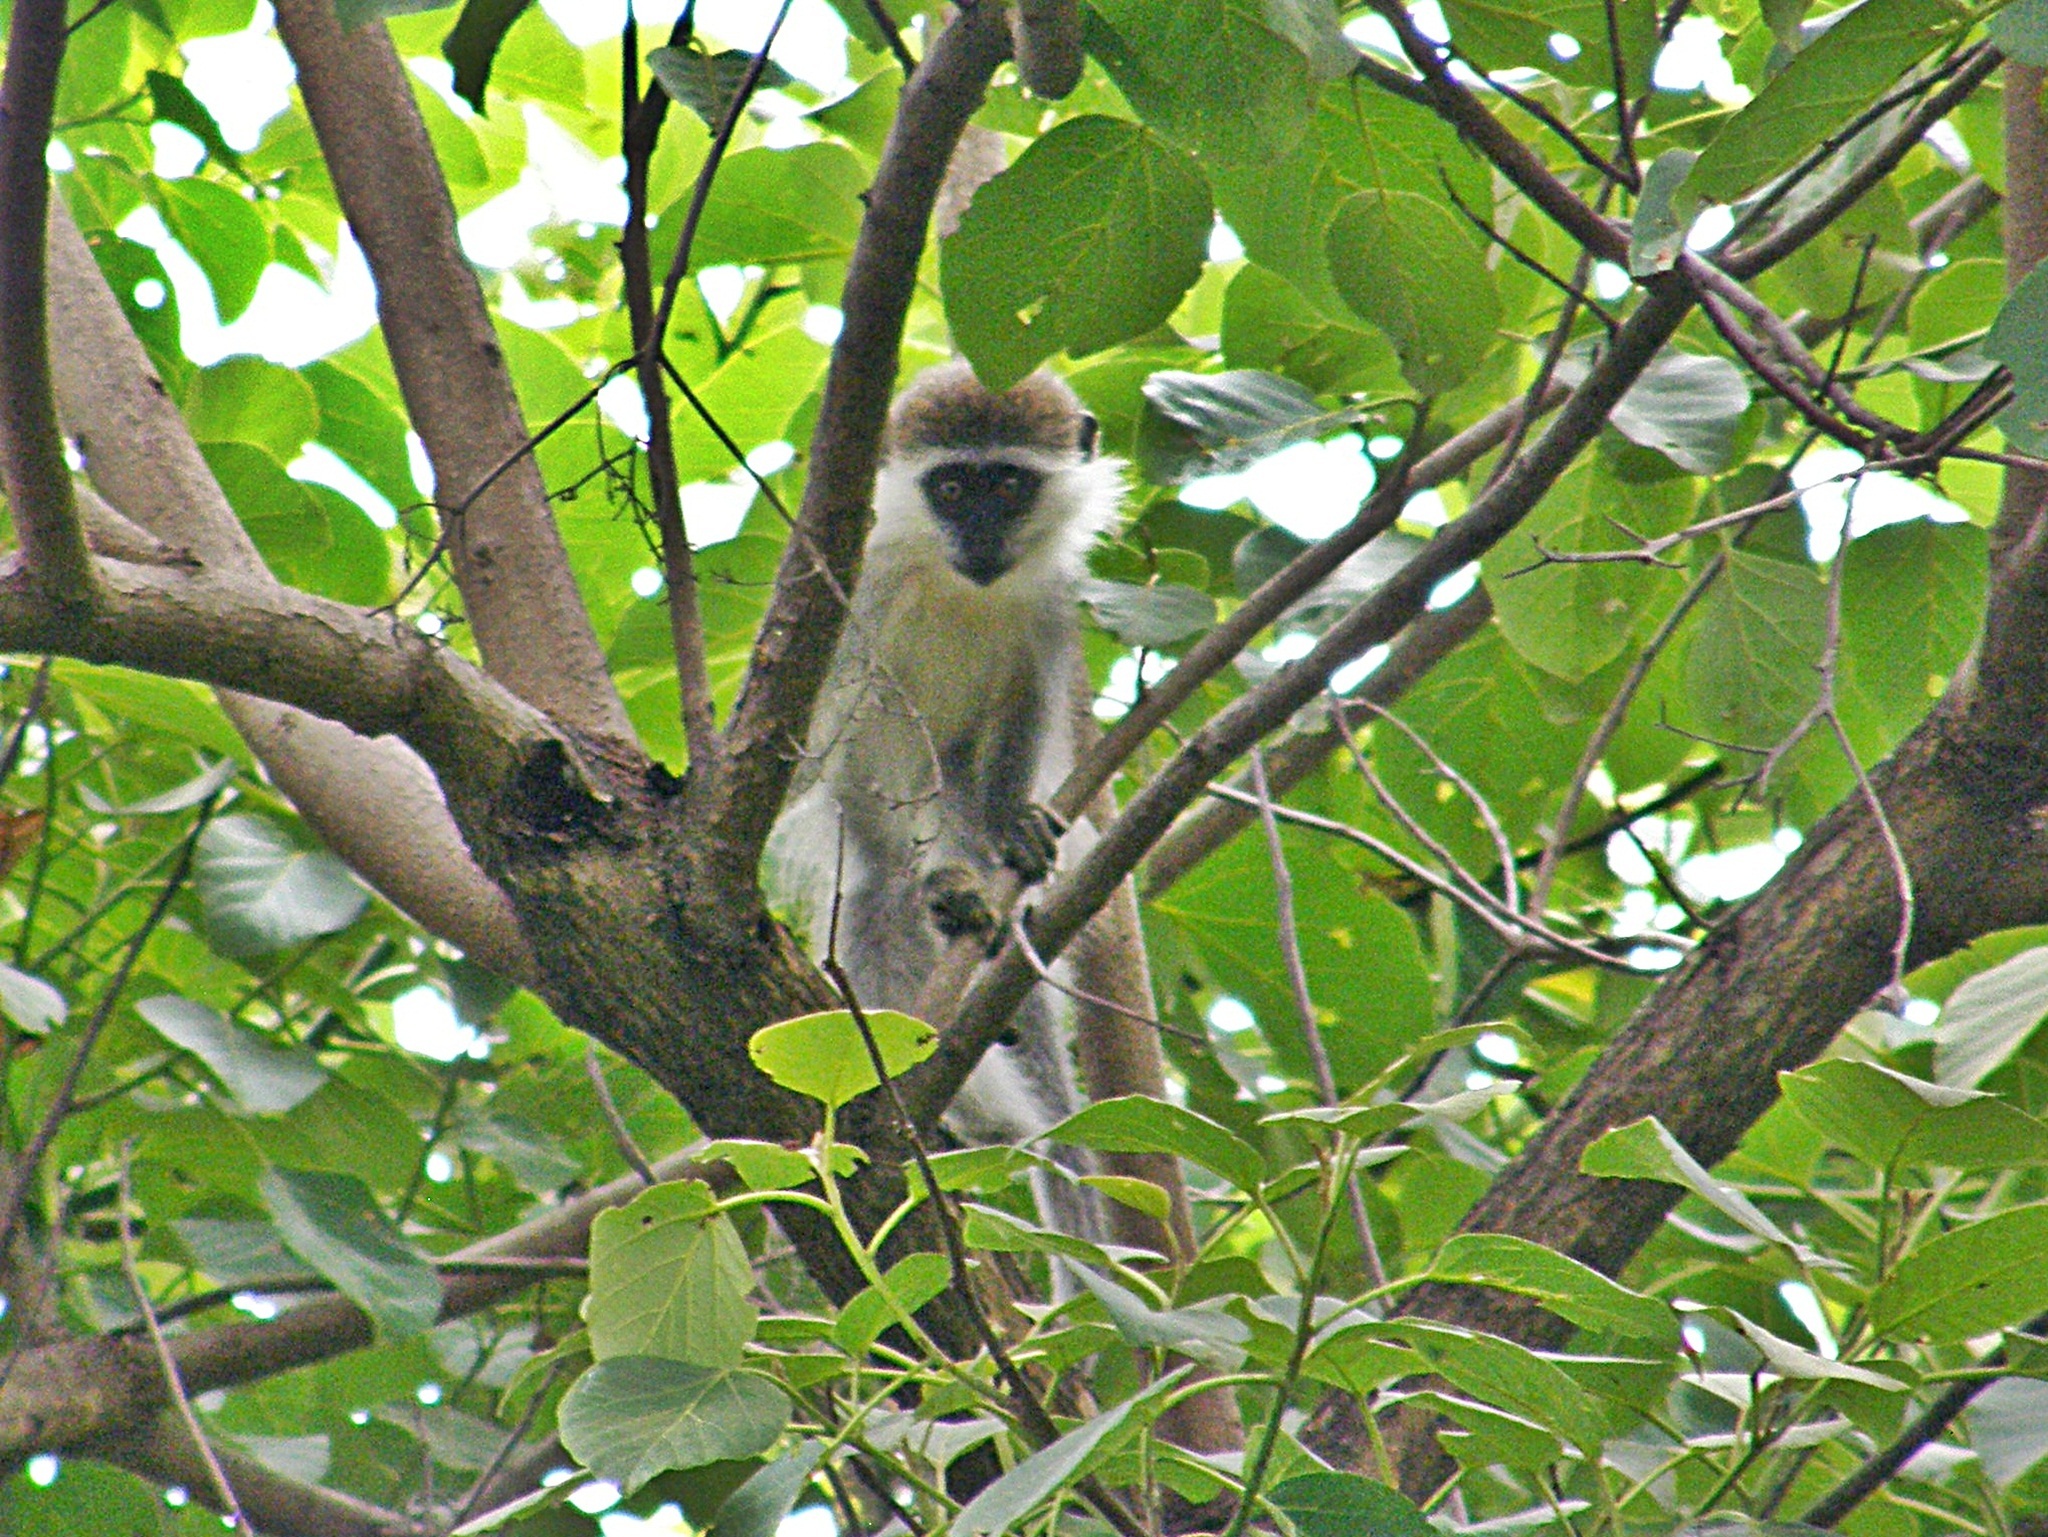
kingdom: Animalia
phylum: Chordata
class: Mammalia
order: Primates
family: Cercopithecidae
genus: Chlorocebus
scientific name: Chlorocebus aethiops
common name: Grivet
